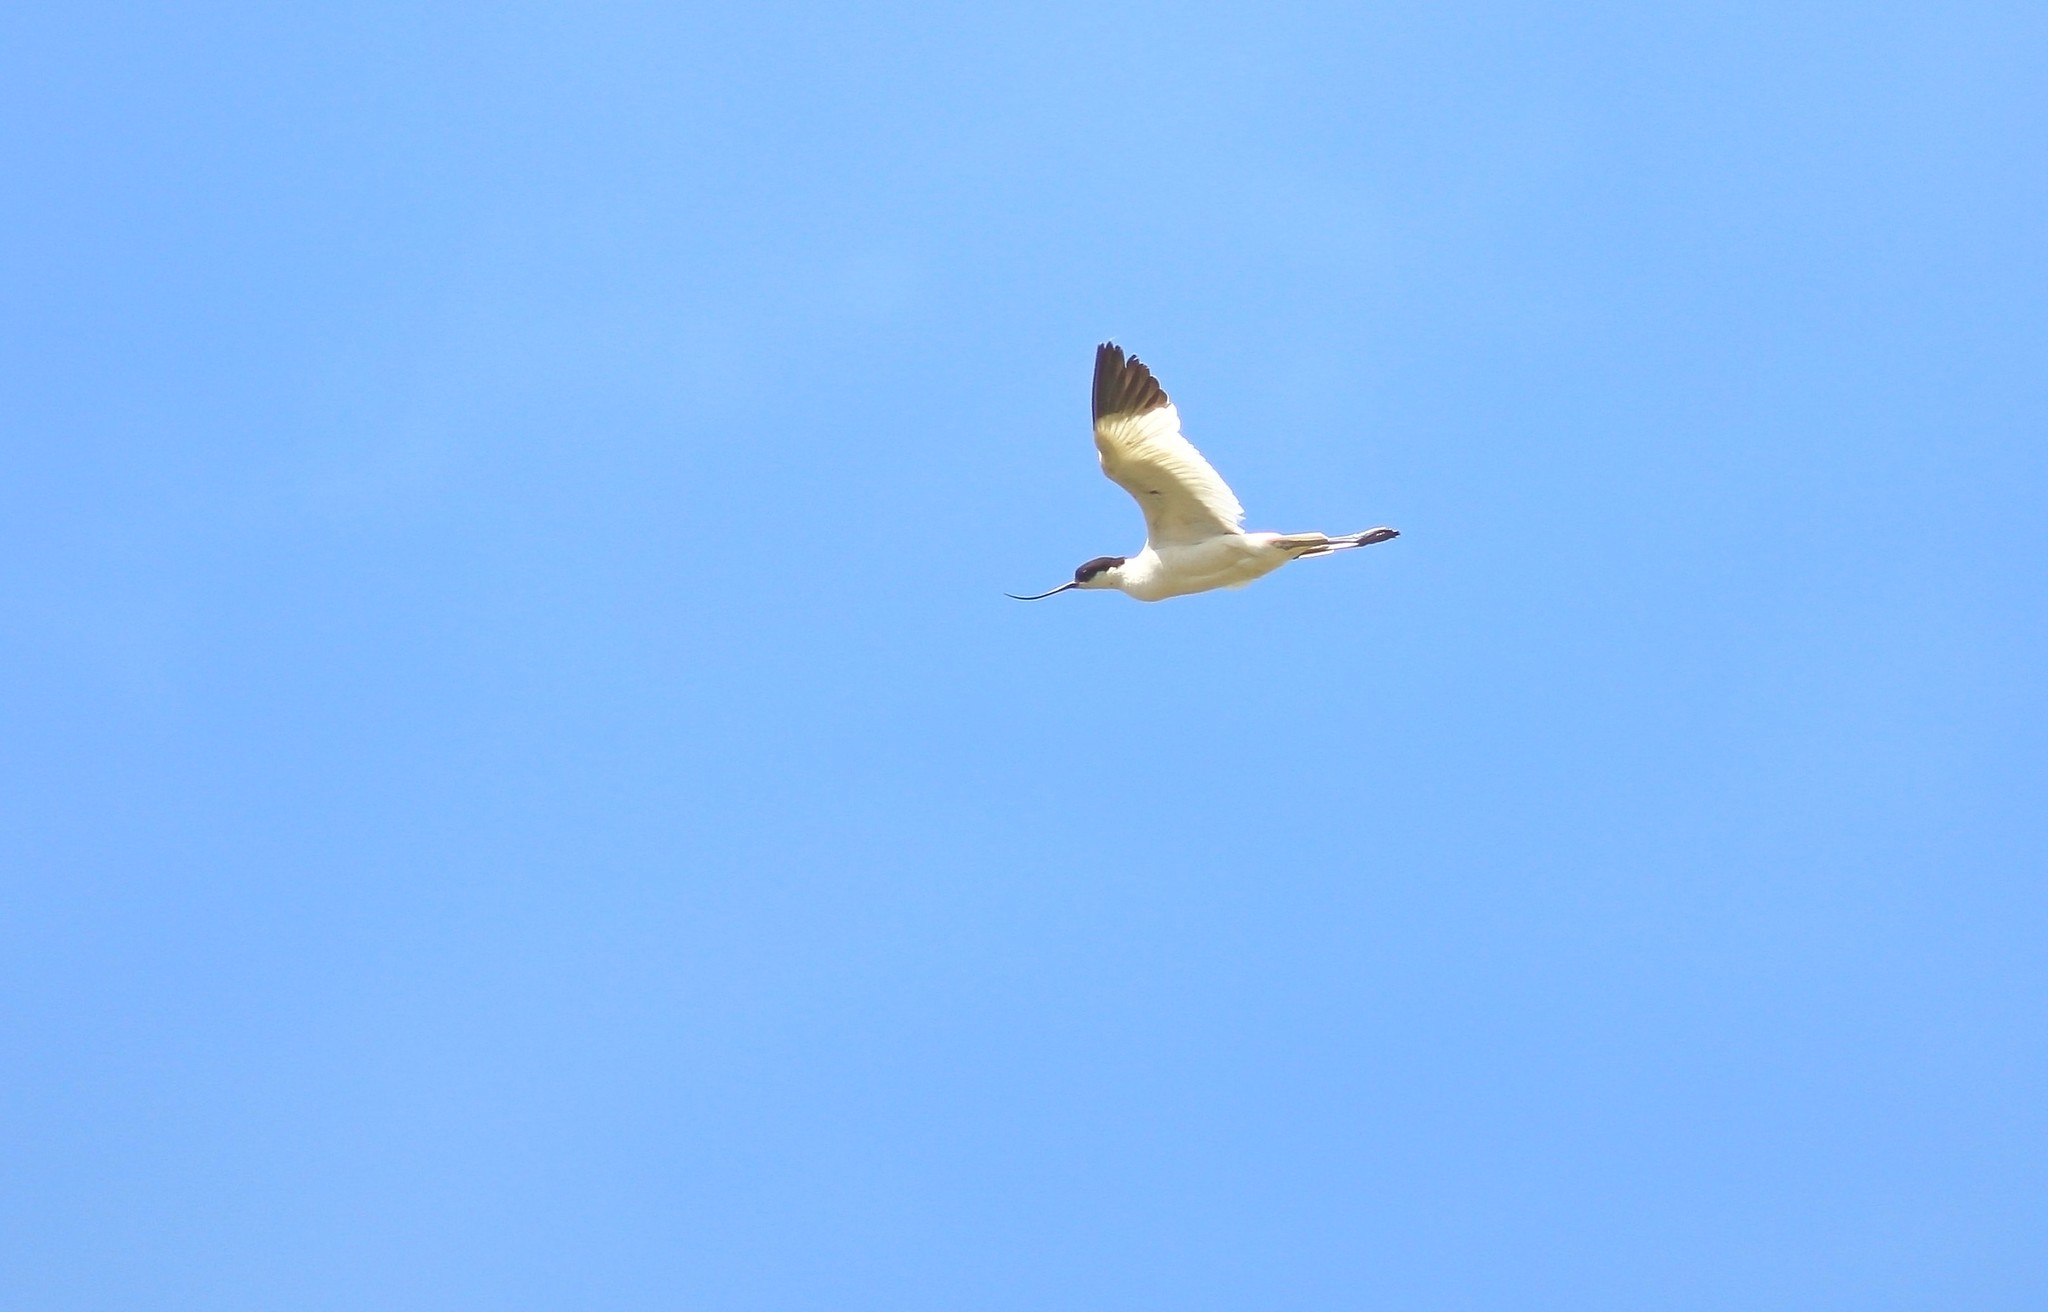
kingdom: Animalia
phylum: Chordata
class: Aves
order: Charadriiformes
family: Recurvirostridae
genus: Recurvirostra
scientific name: Recurvirostra avosetta
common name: Pied avocet
